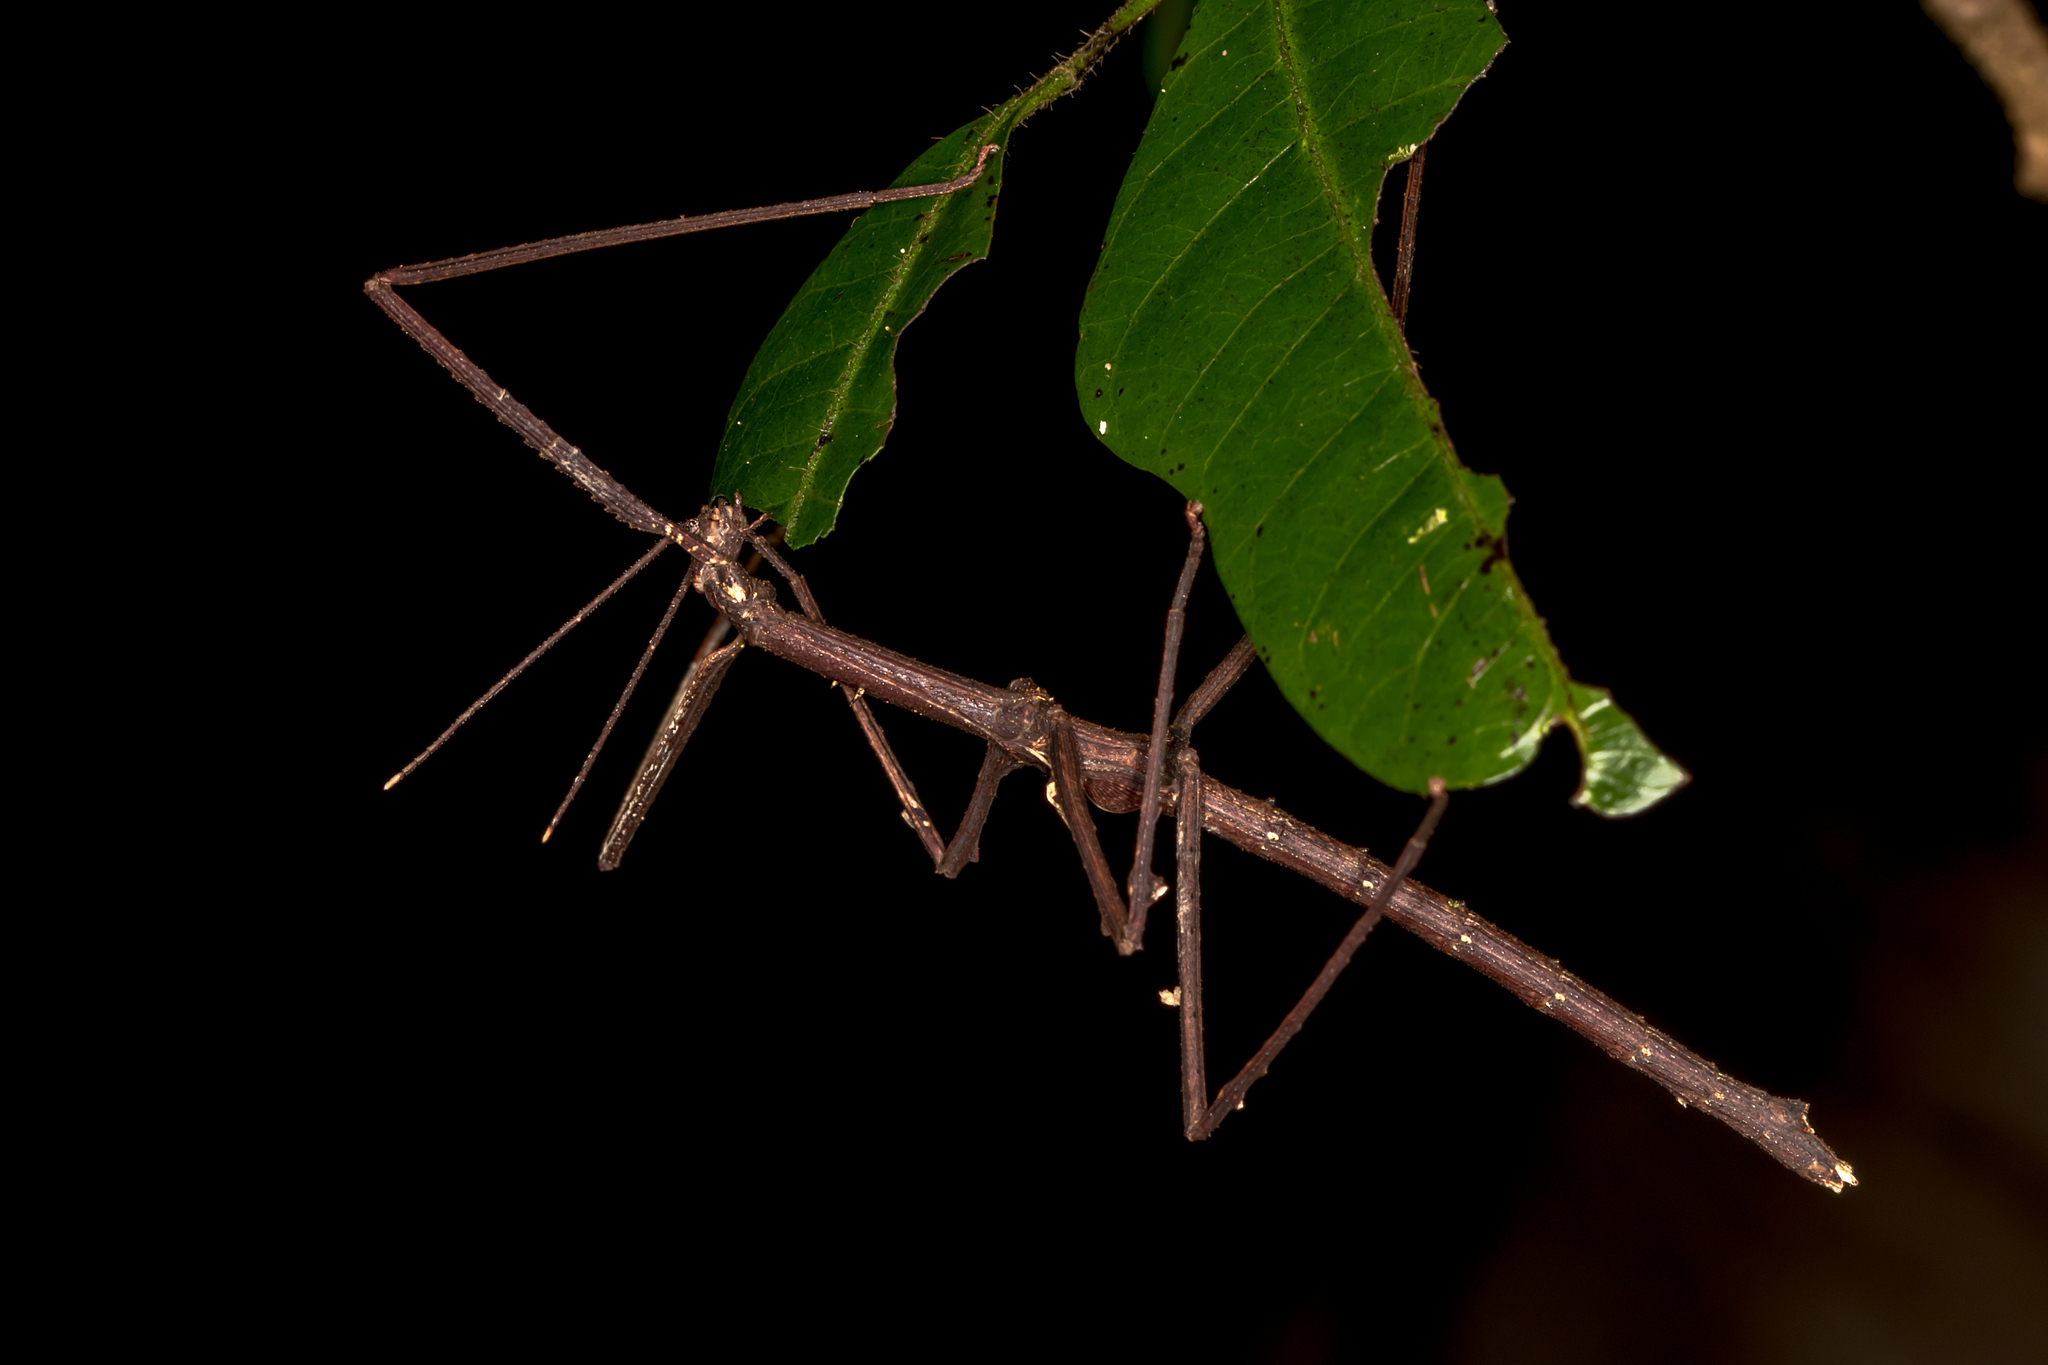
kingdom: Animalia
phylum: Arthropoda
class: Insecta
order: Phasmida
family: Phasmatidae
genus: Onchestus
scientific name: Onchestus gorgus
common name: Gorgon stick-insect
